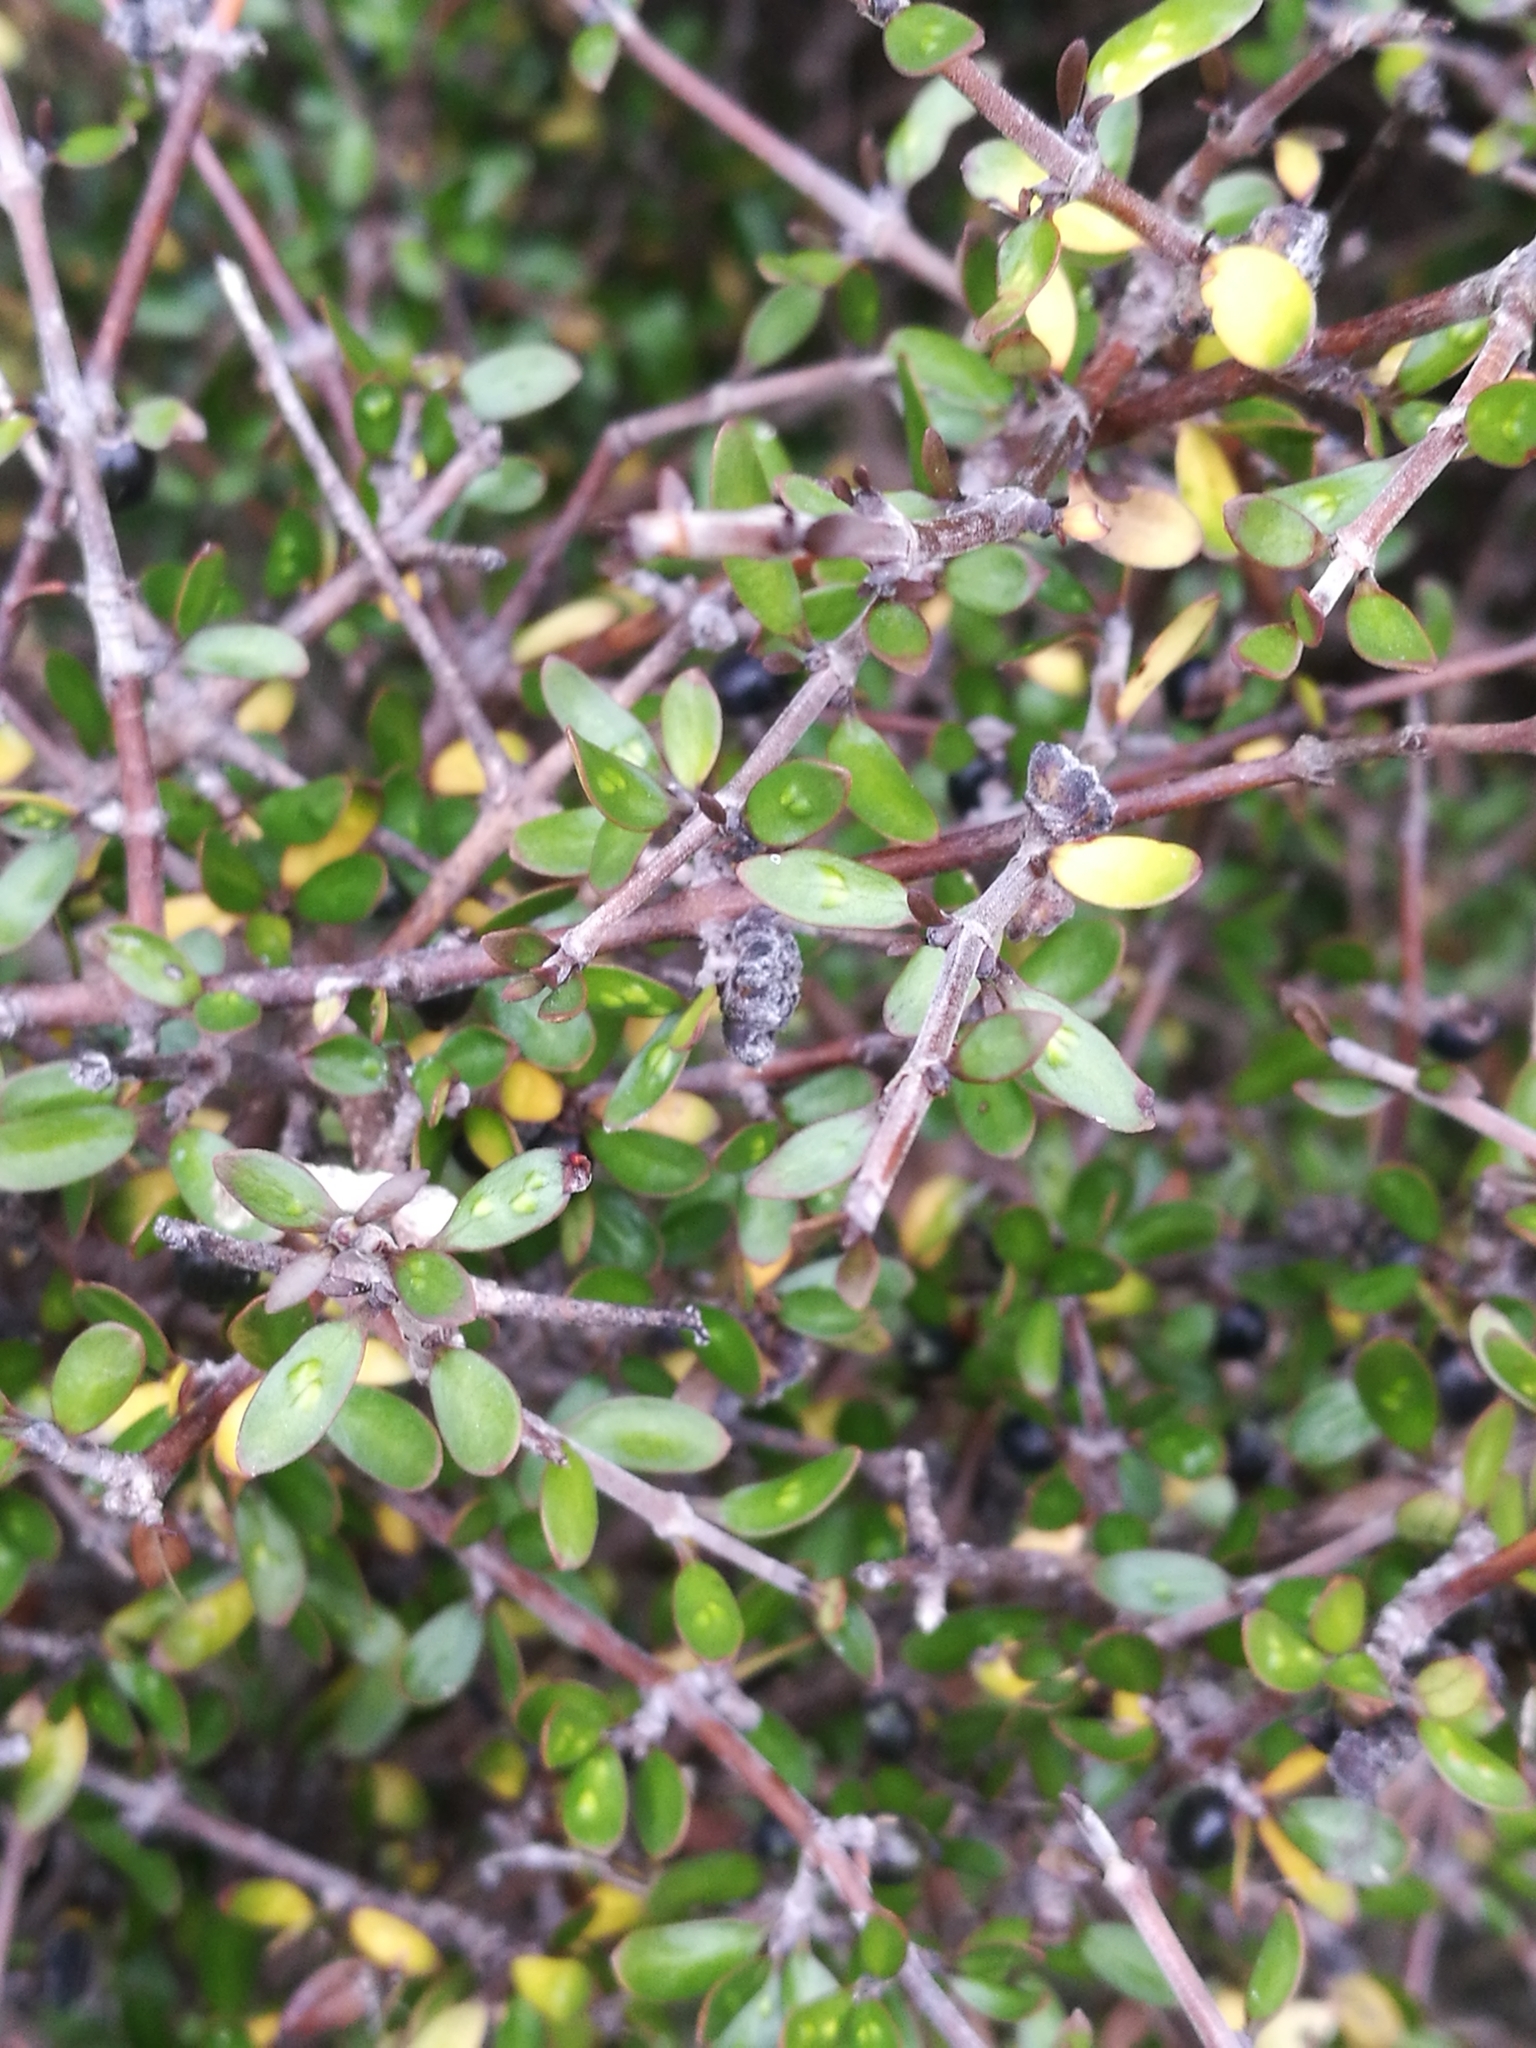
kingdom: Plantae
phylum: Tracheophyta
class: Magnoliopsida
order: Gentianales
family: Rubiaceae
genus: Coprosma
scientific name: Coprosma propinqua
